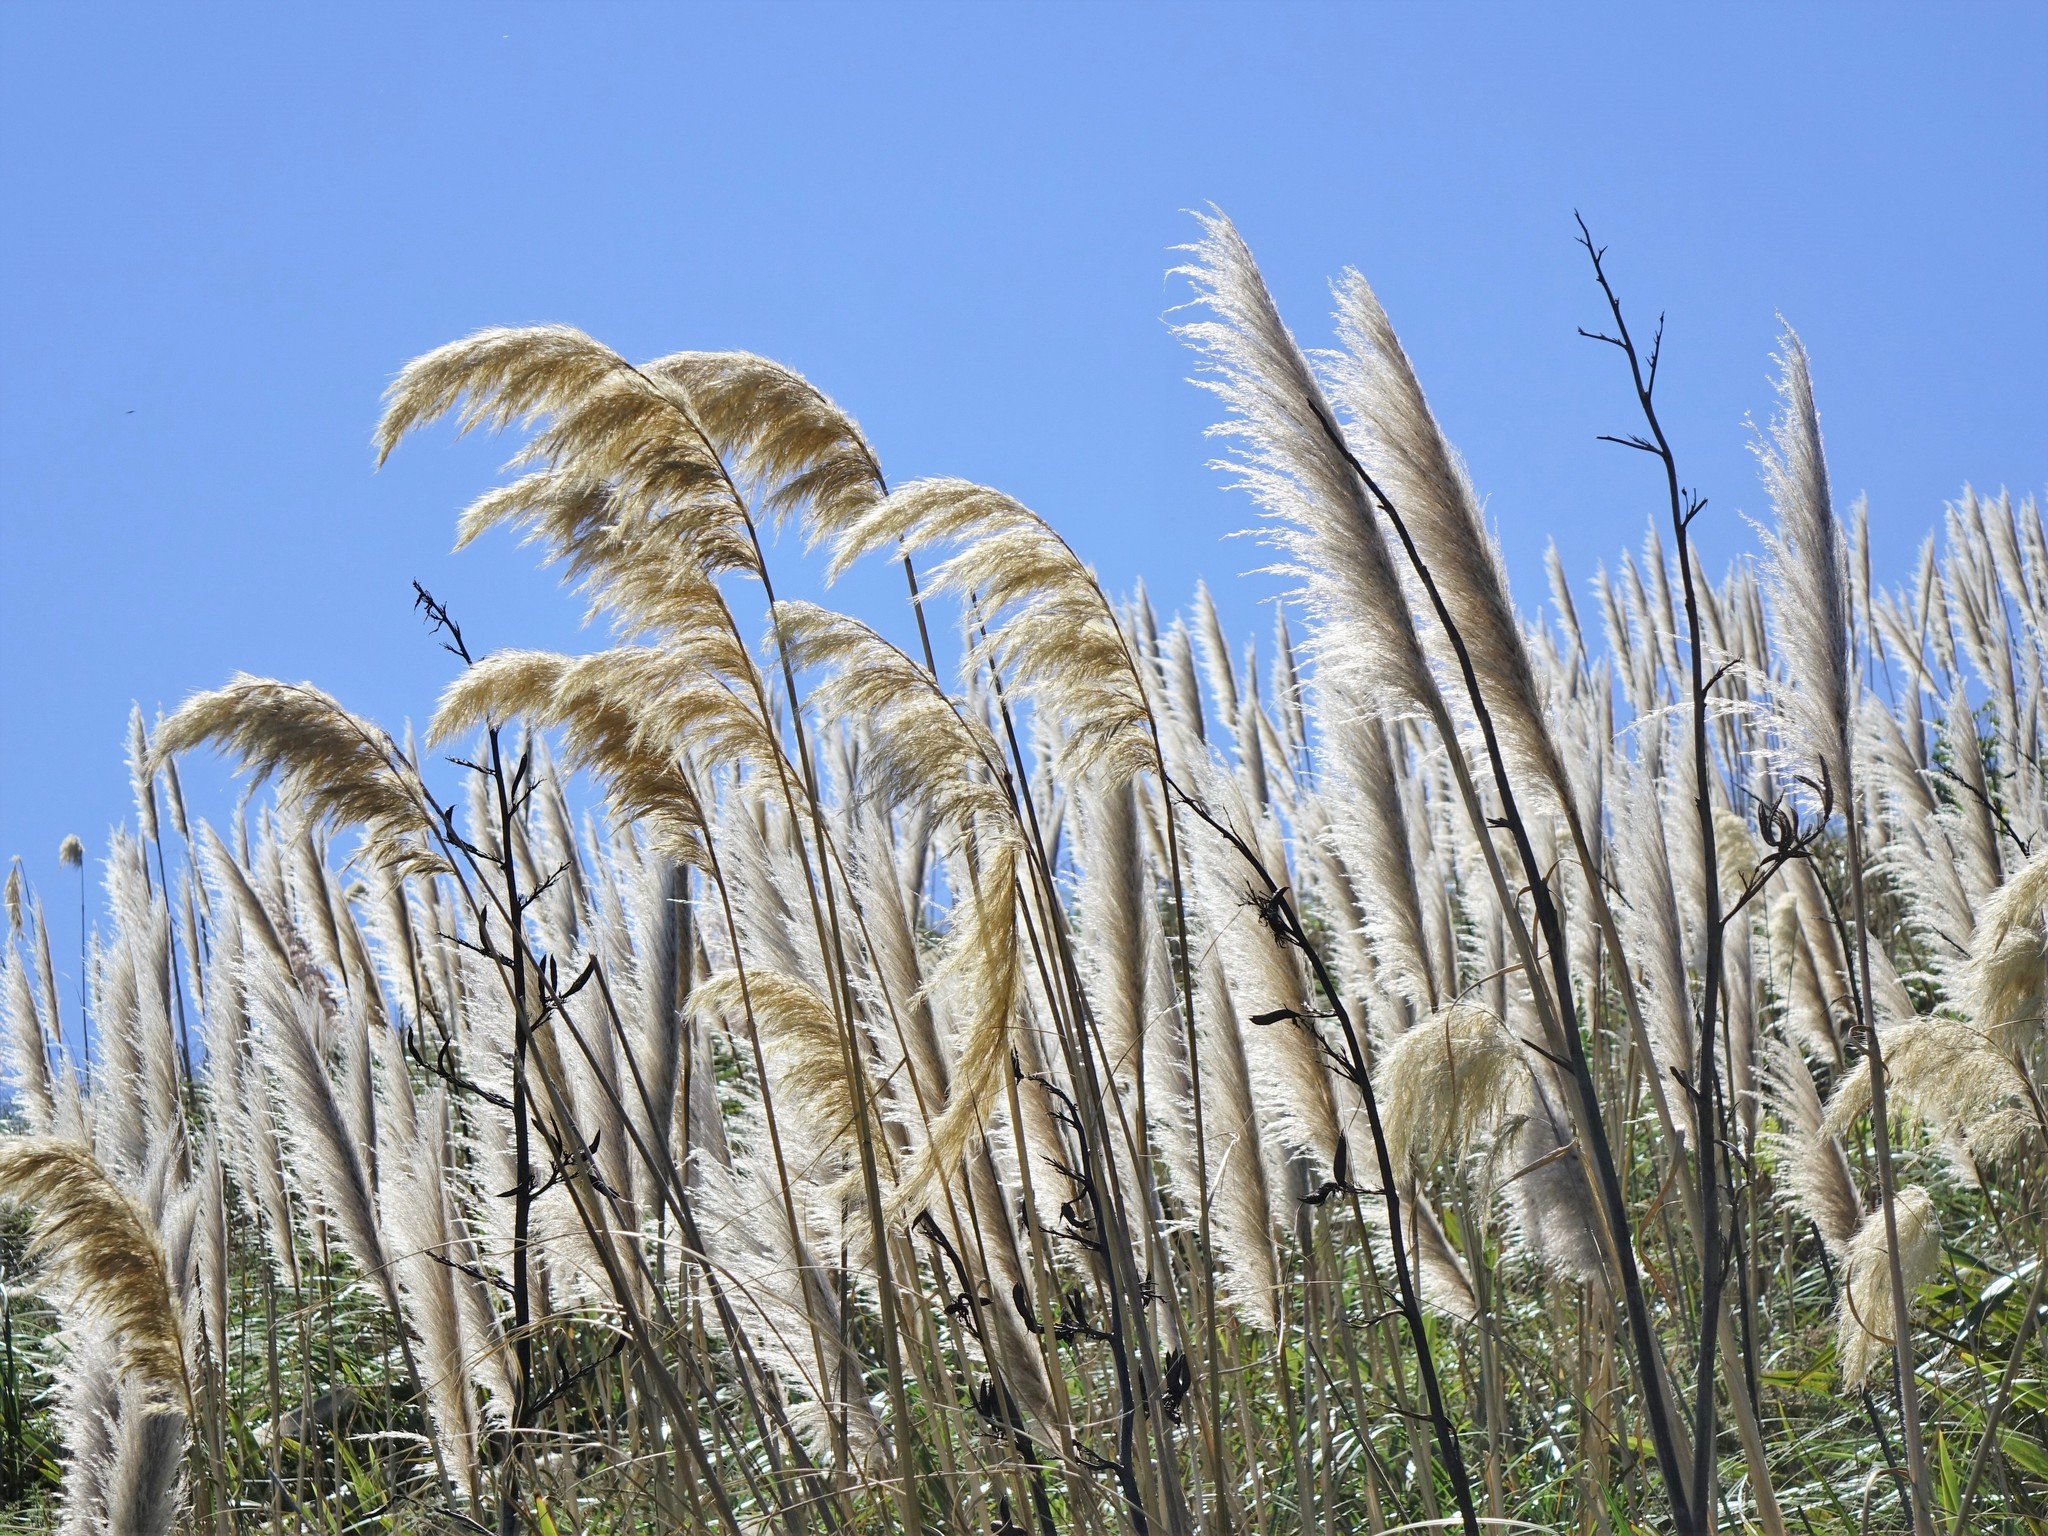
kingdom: Plantae
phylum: Tracheophyta
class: Liliopsida
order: Poales
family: Poaceae
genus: Austroderia
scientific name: Austroderia splendens
